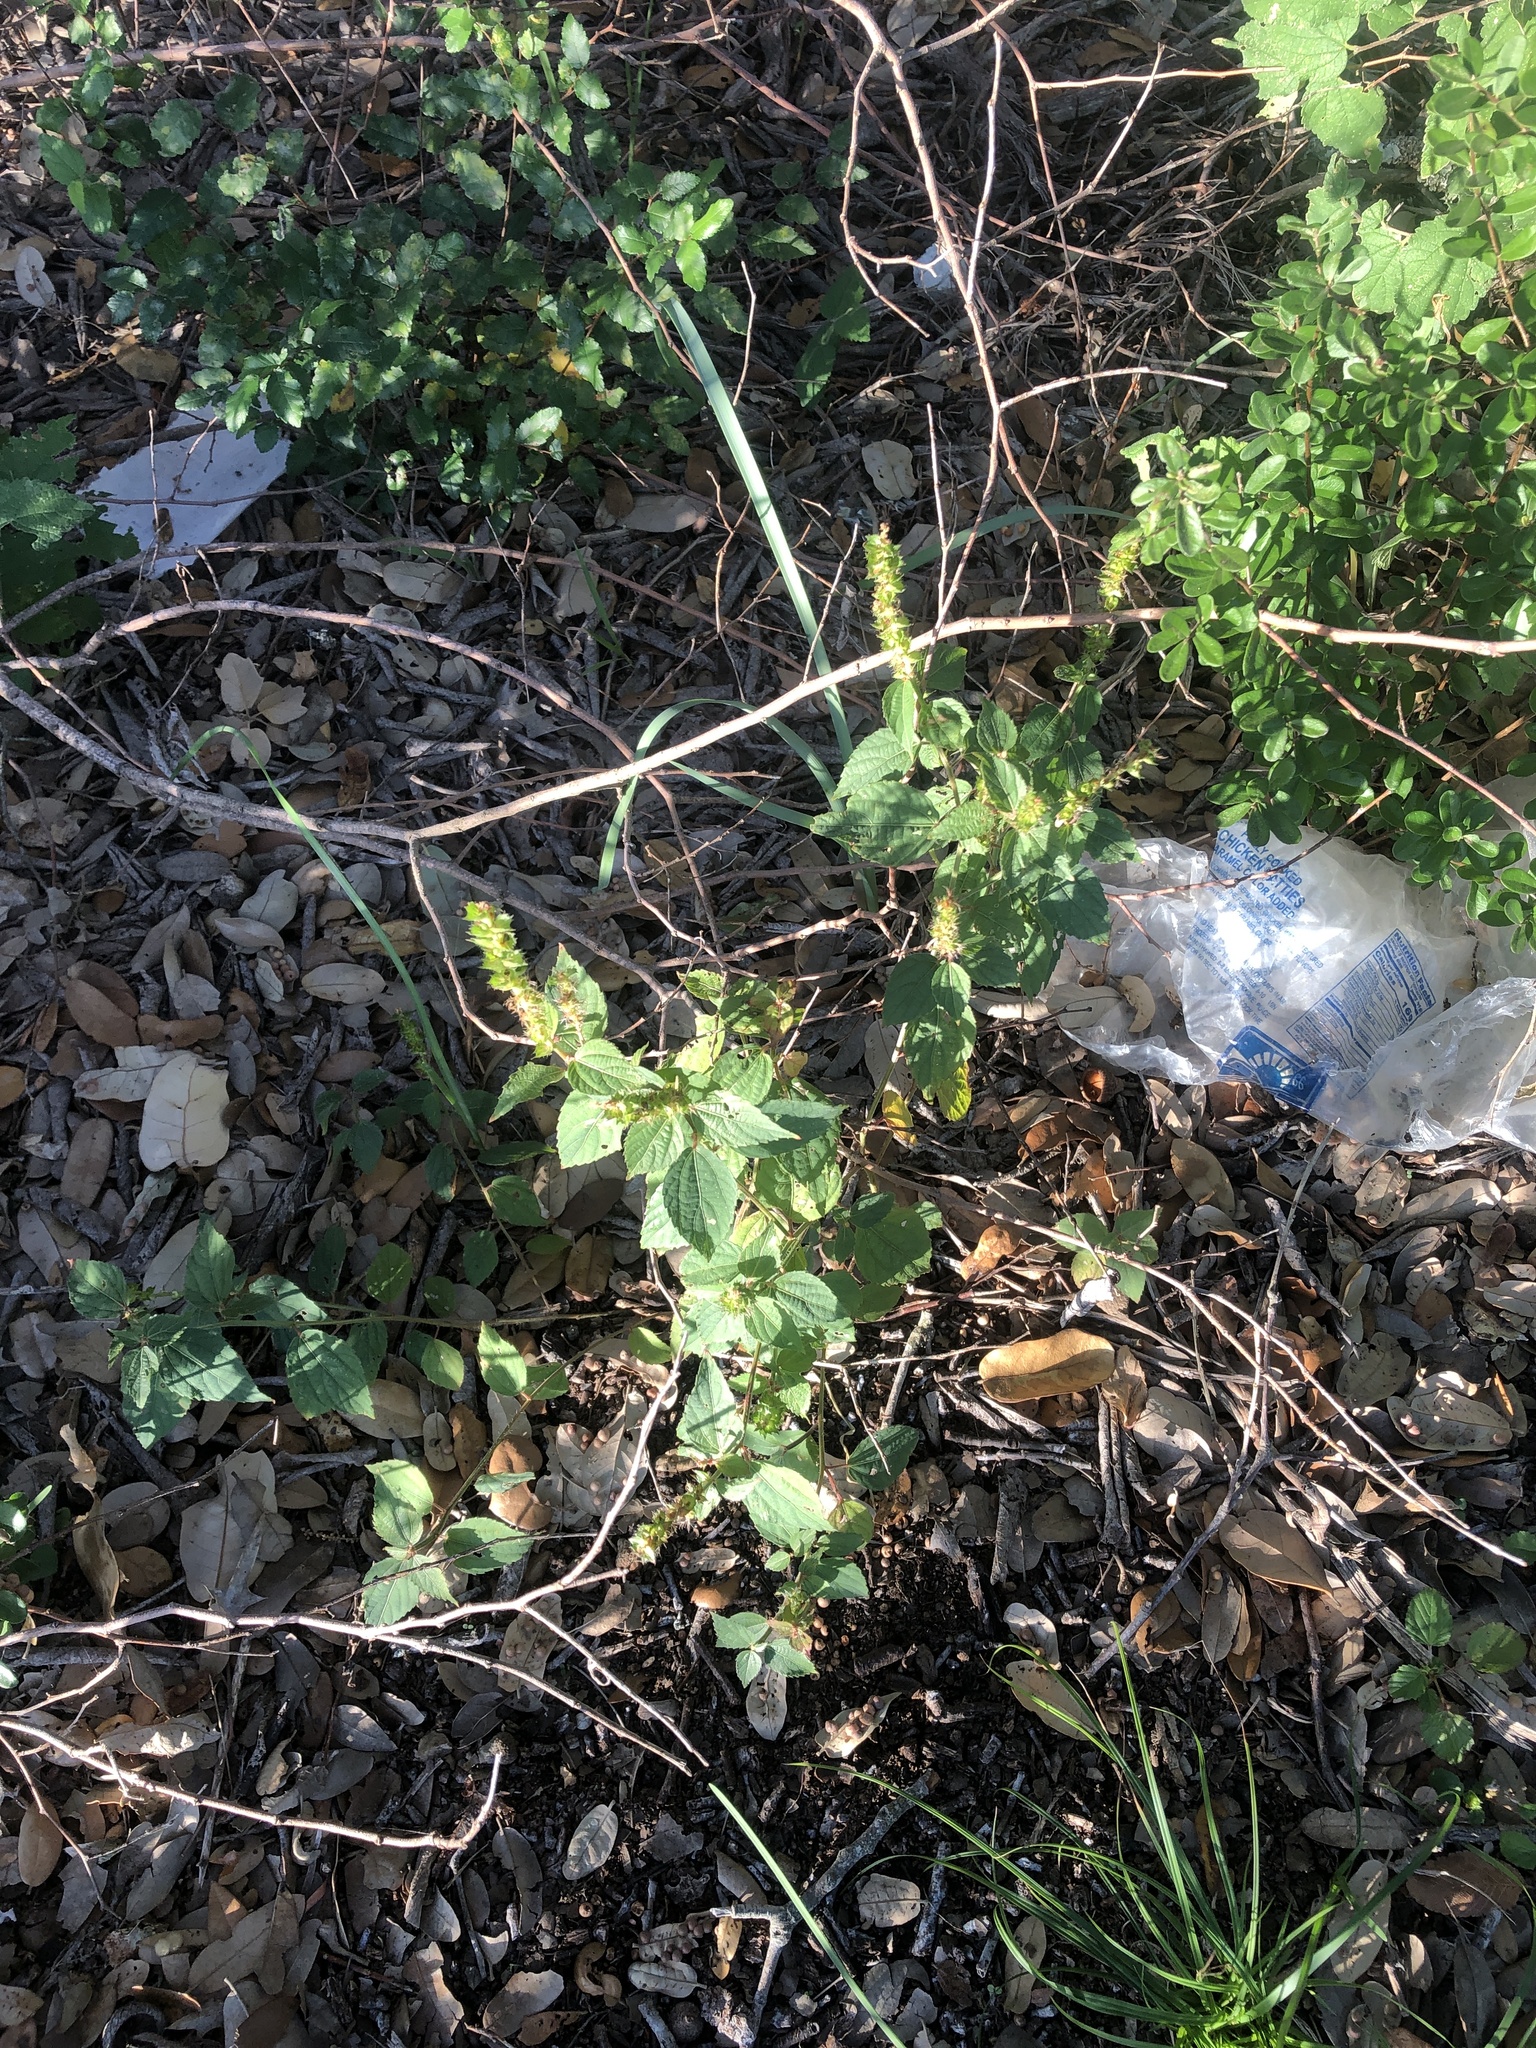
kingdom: Plantae
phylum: Tracheophyta
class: Magnoliopsida
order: Malpighiales
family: Euphorbiaceae
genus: Acalypha
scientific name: Acalypha phleoides
